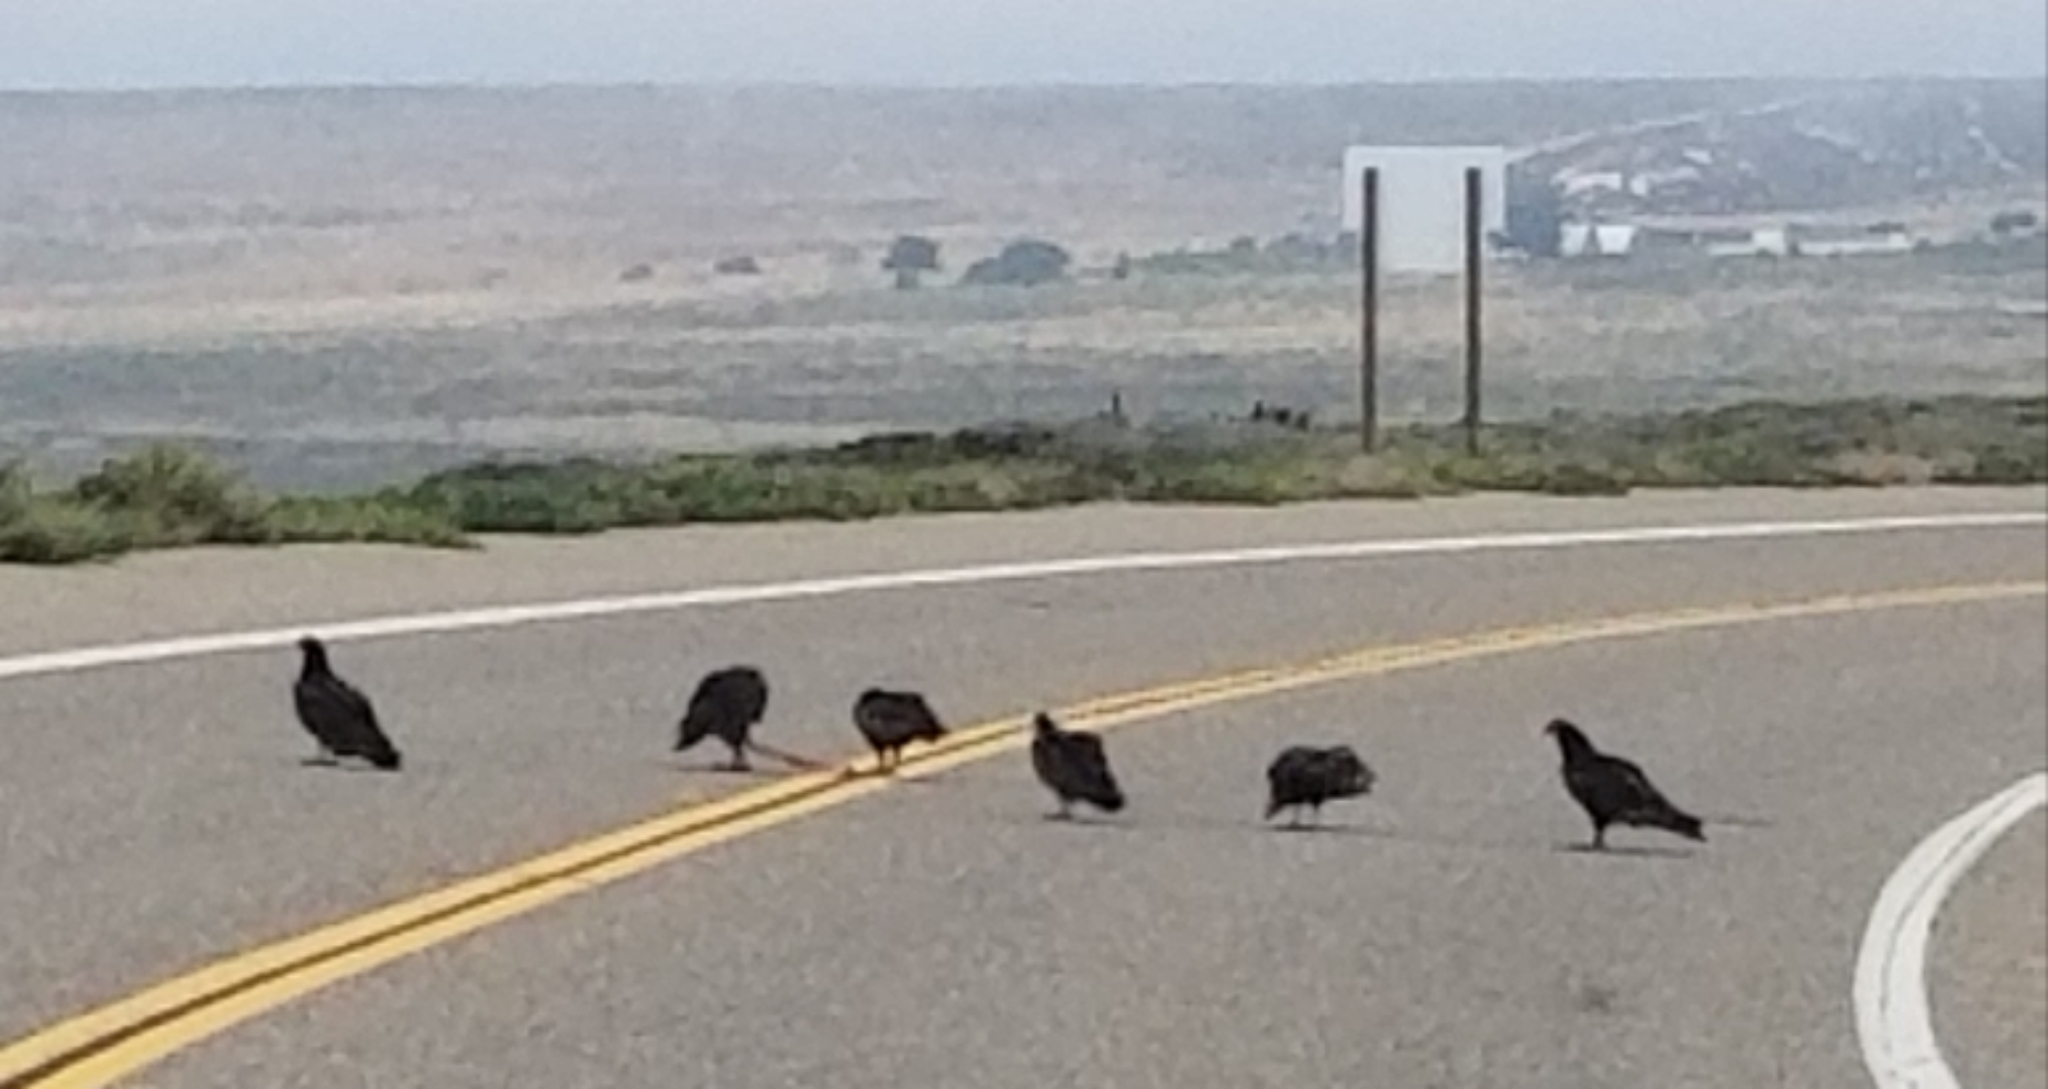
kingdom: Animalia
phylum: Chordata
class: Aves
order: Accipitriformes
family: Cathartidae
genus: Cathartes
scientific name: Cathartes aura
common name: Turkey vulture
